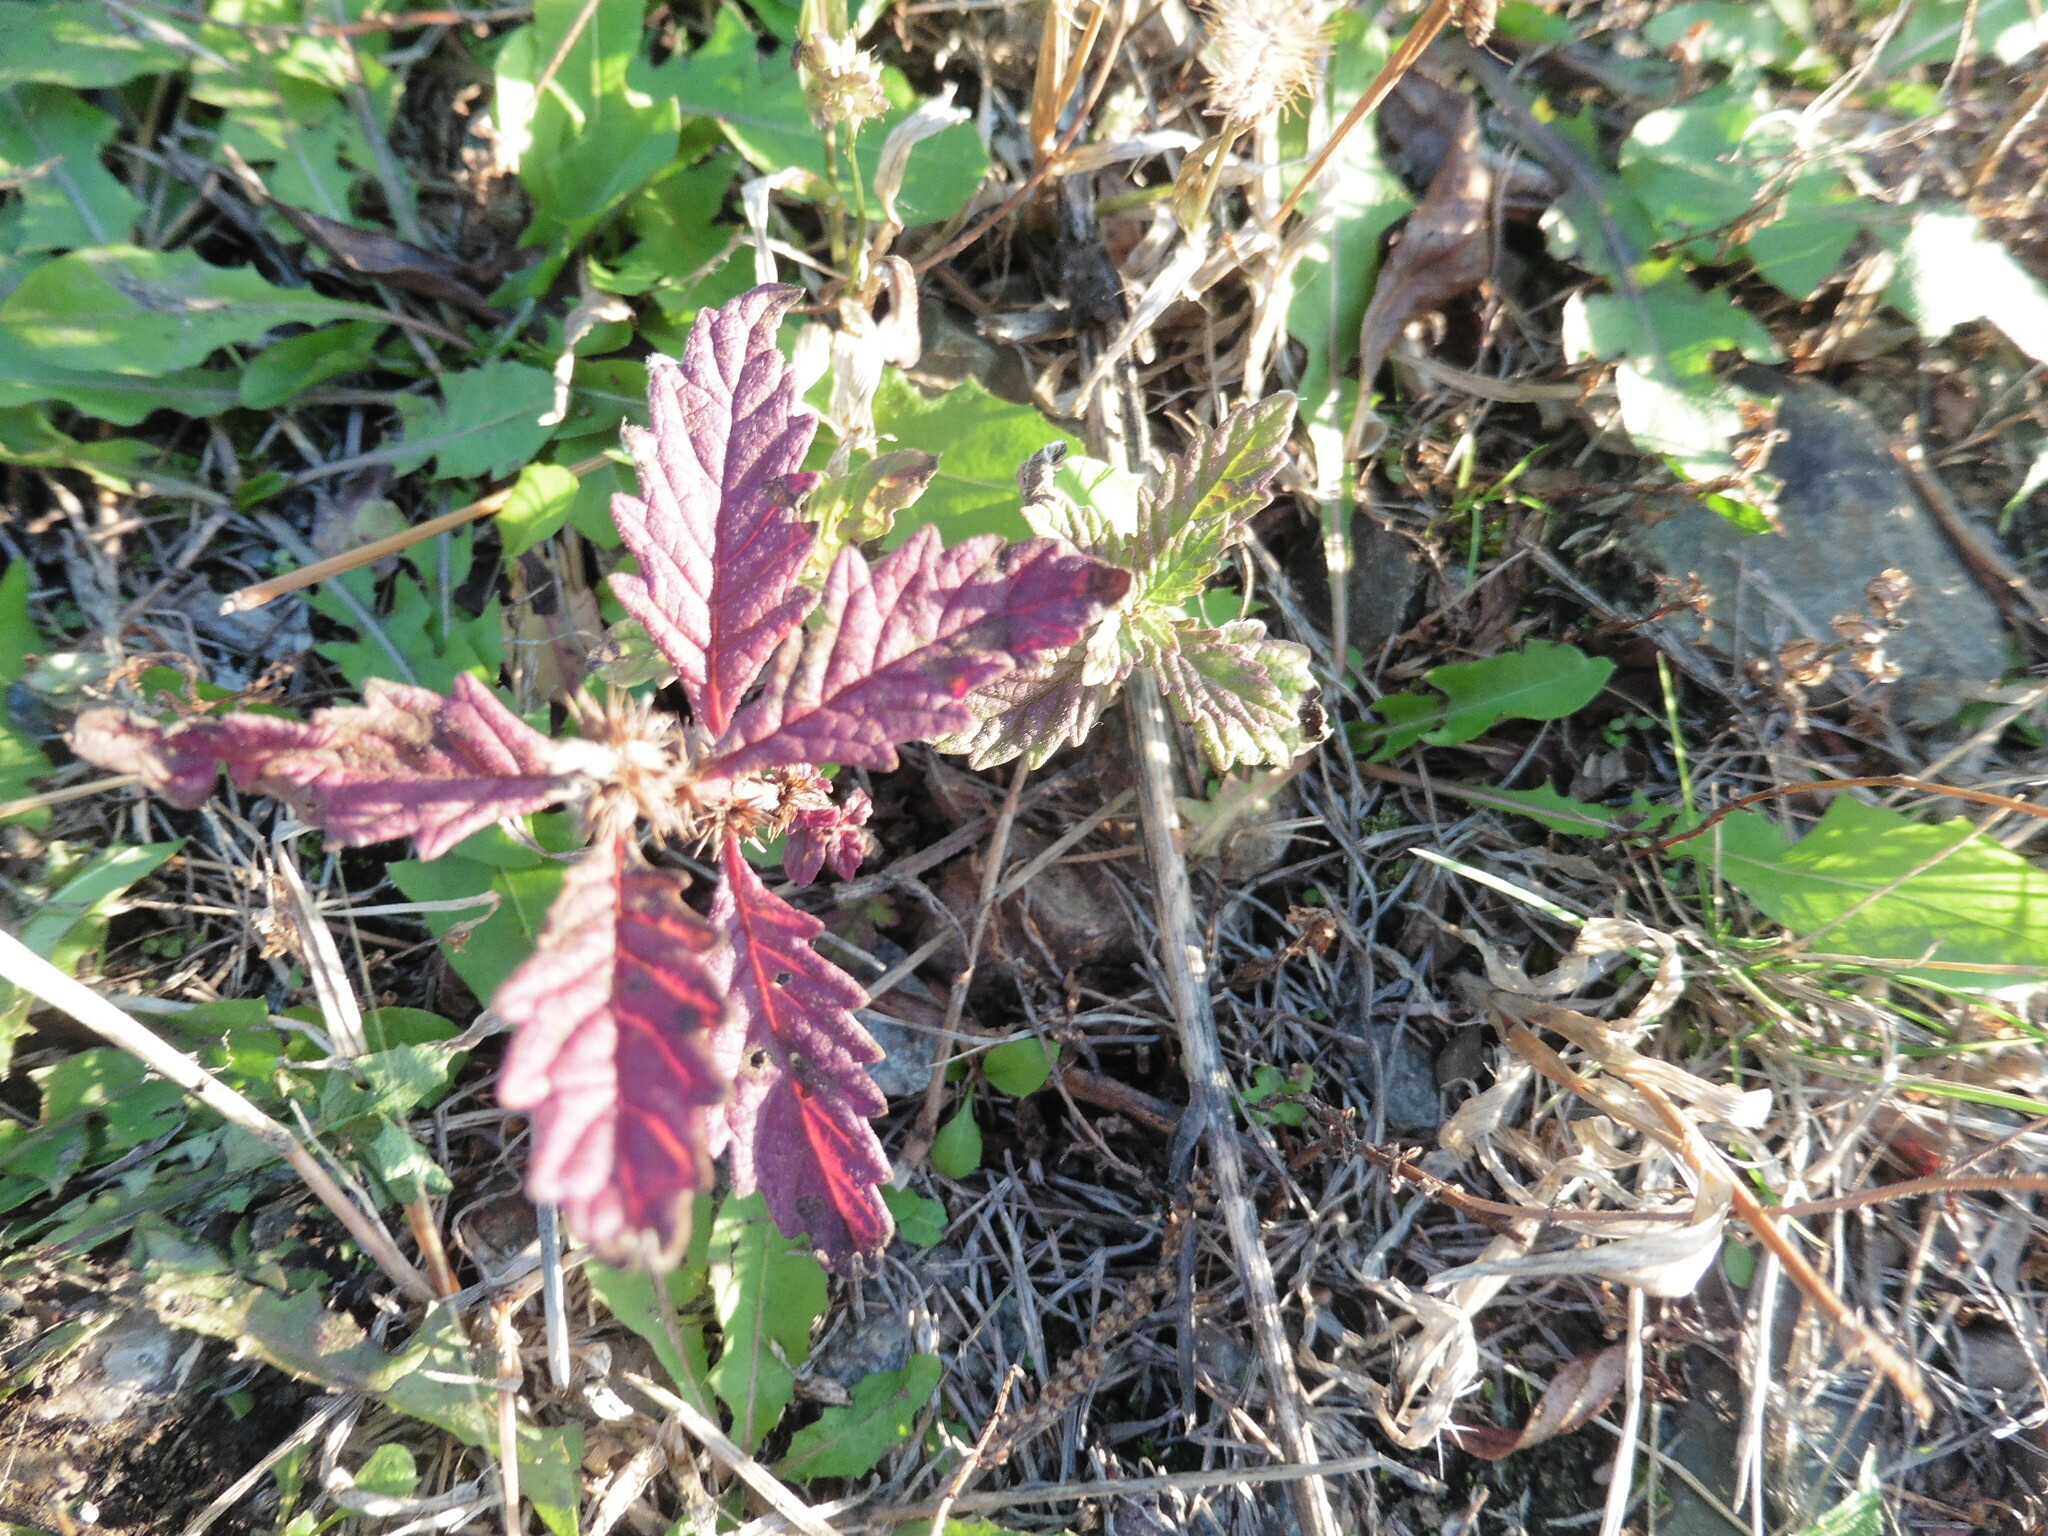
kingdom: Plantae
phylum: Tracheophyta
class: Magnoliopsida
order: Lamiales
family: Lamiaceae
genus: Lycopus
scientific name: Lycopus europaeus
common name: European bugleweed
